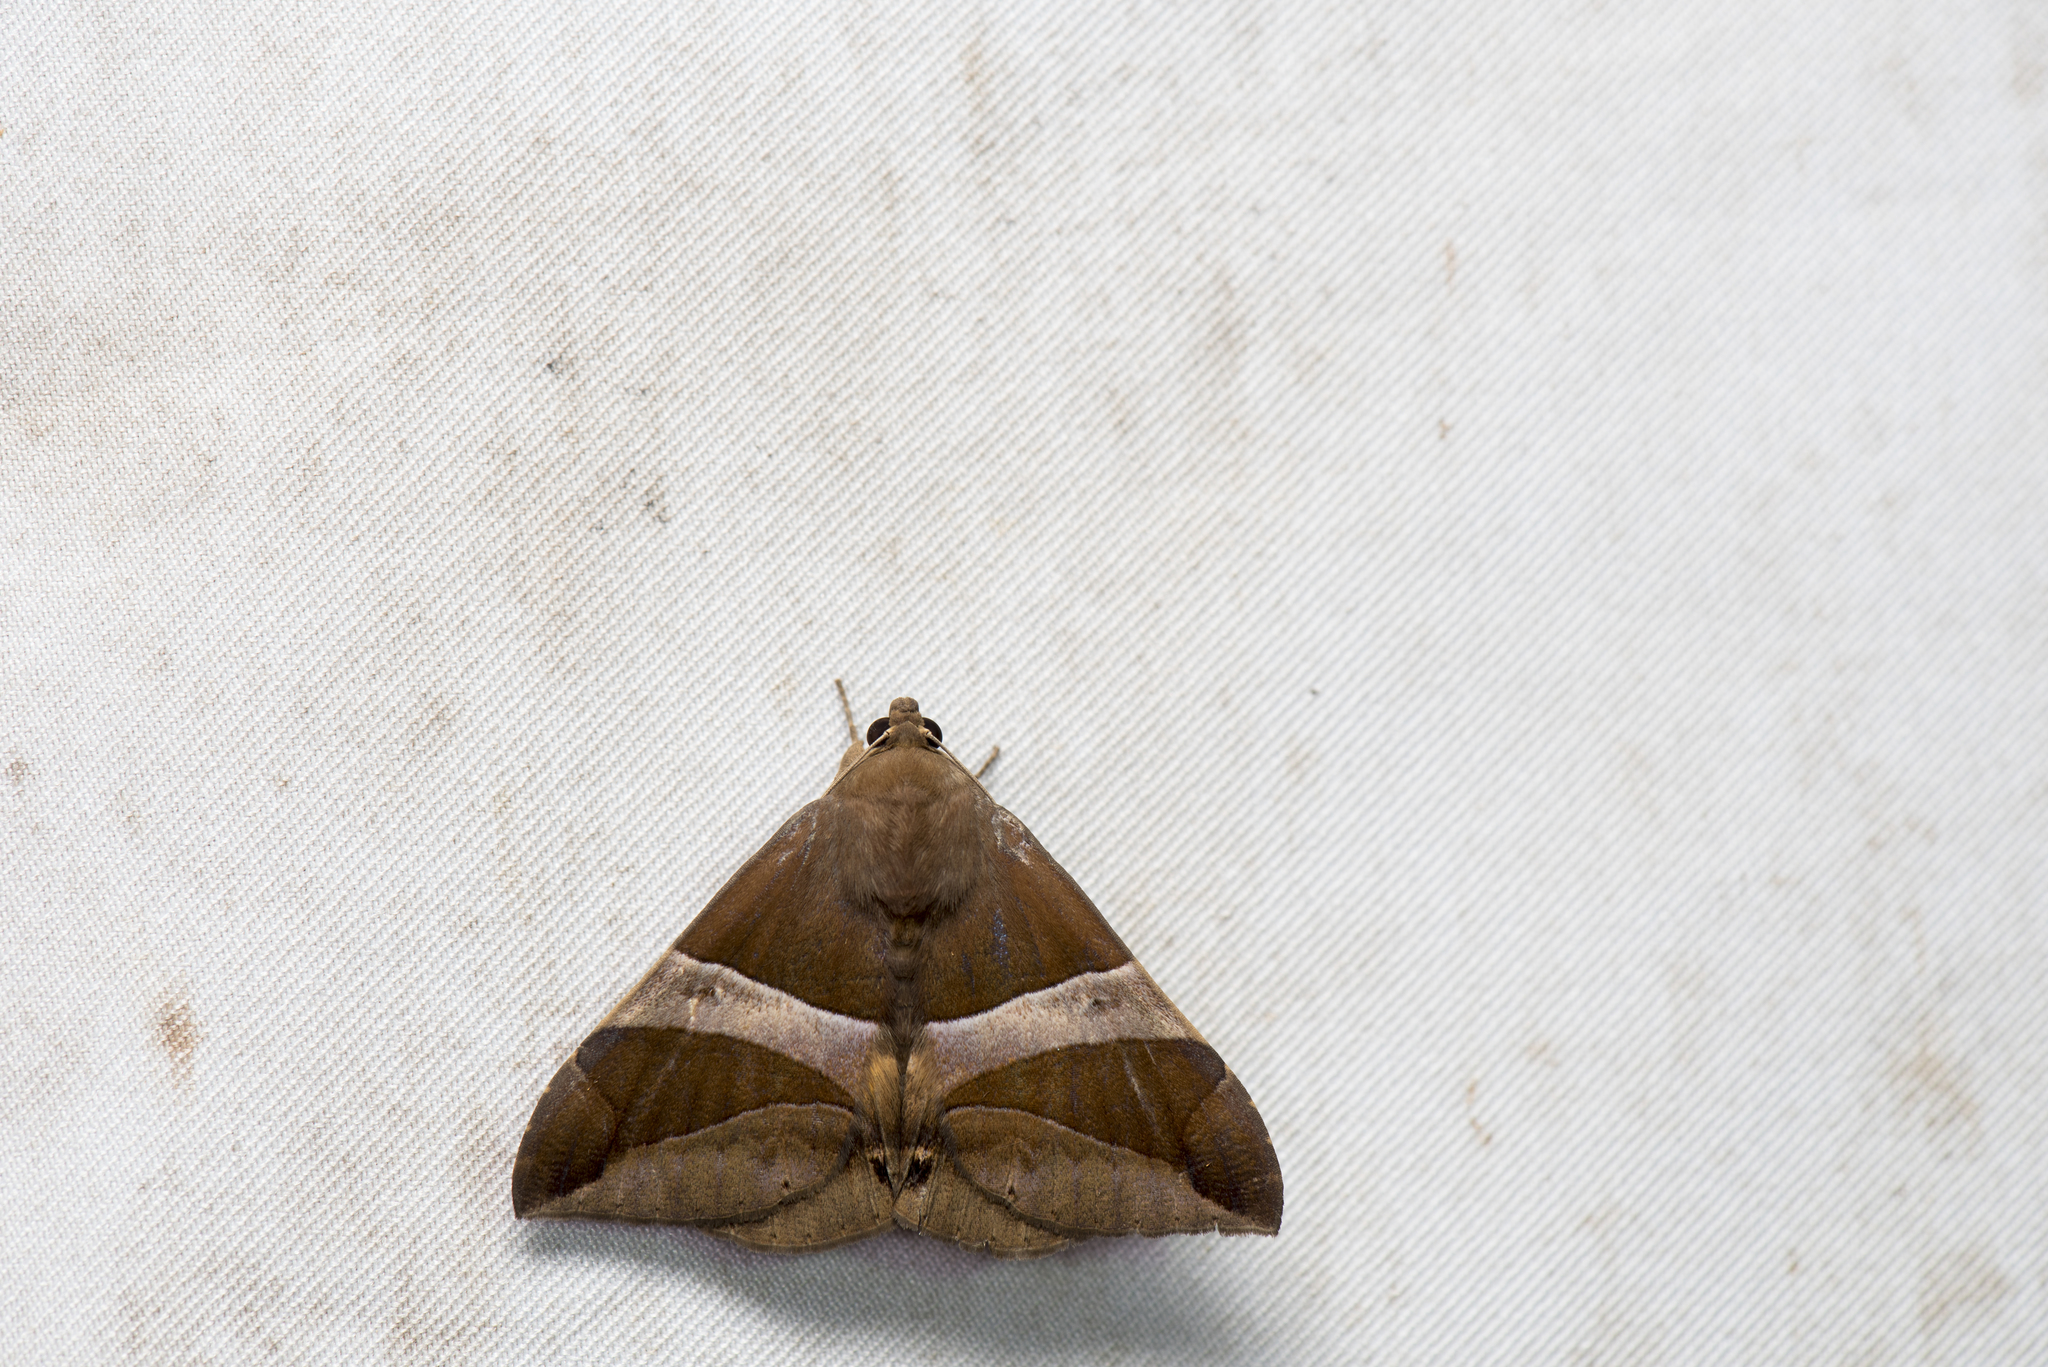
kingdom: Animalia
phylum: Arthropoda
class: Insecta
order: Lepidoptera
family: Erebidae
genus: Bastilla
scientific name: Bastilla fulvotaenia
